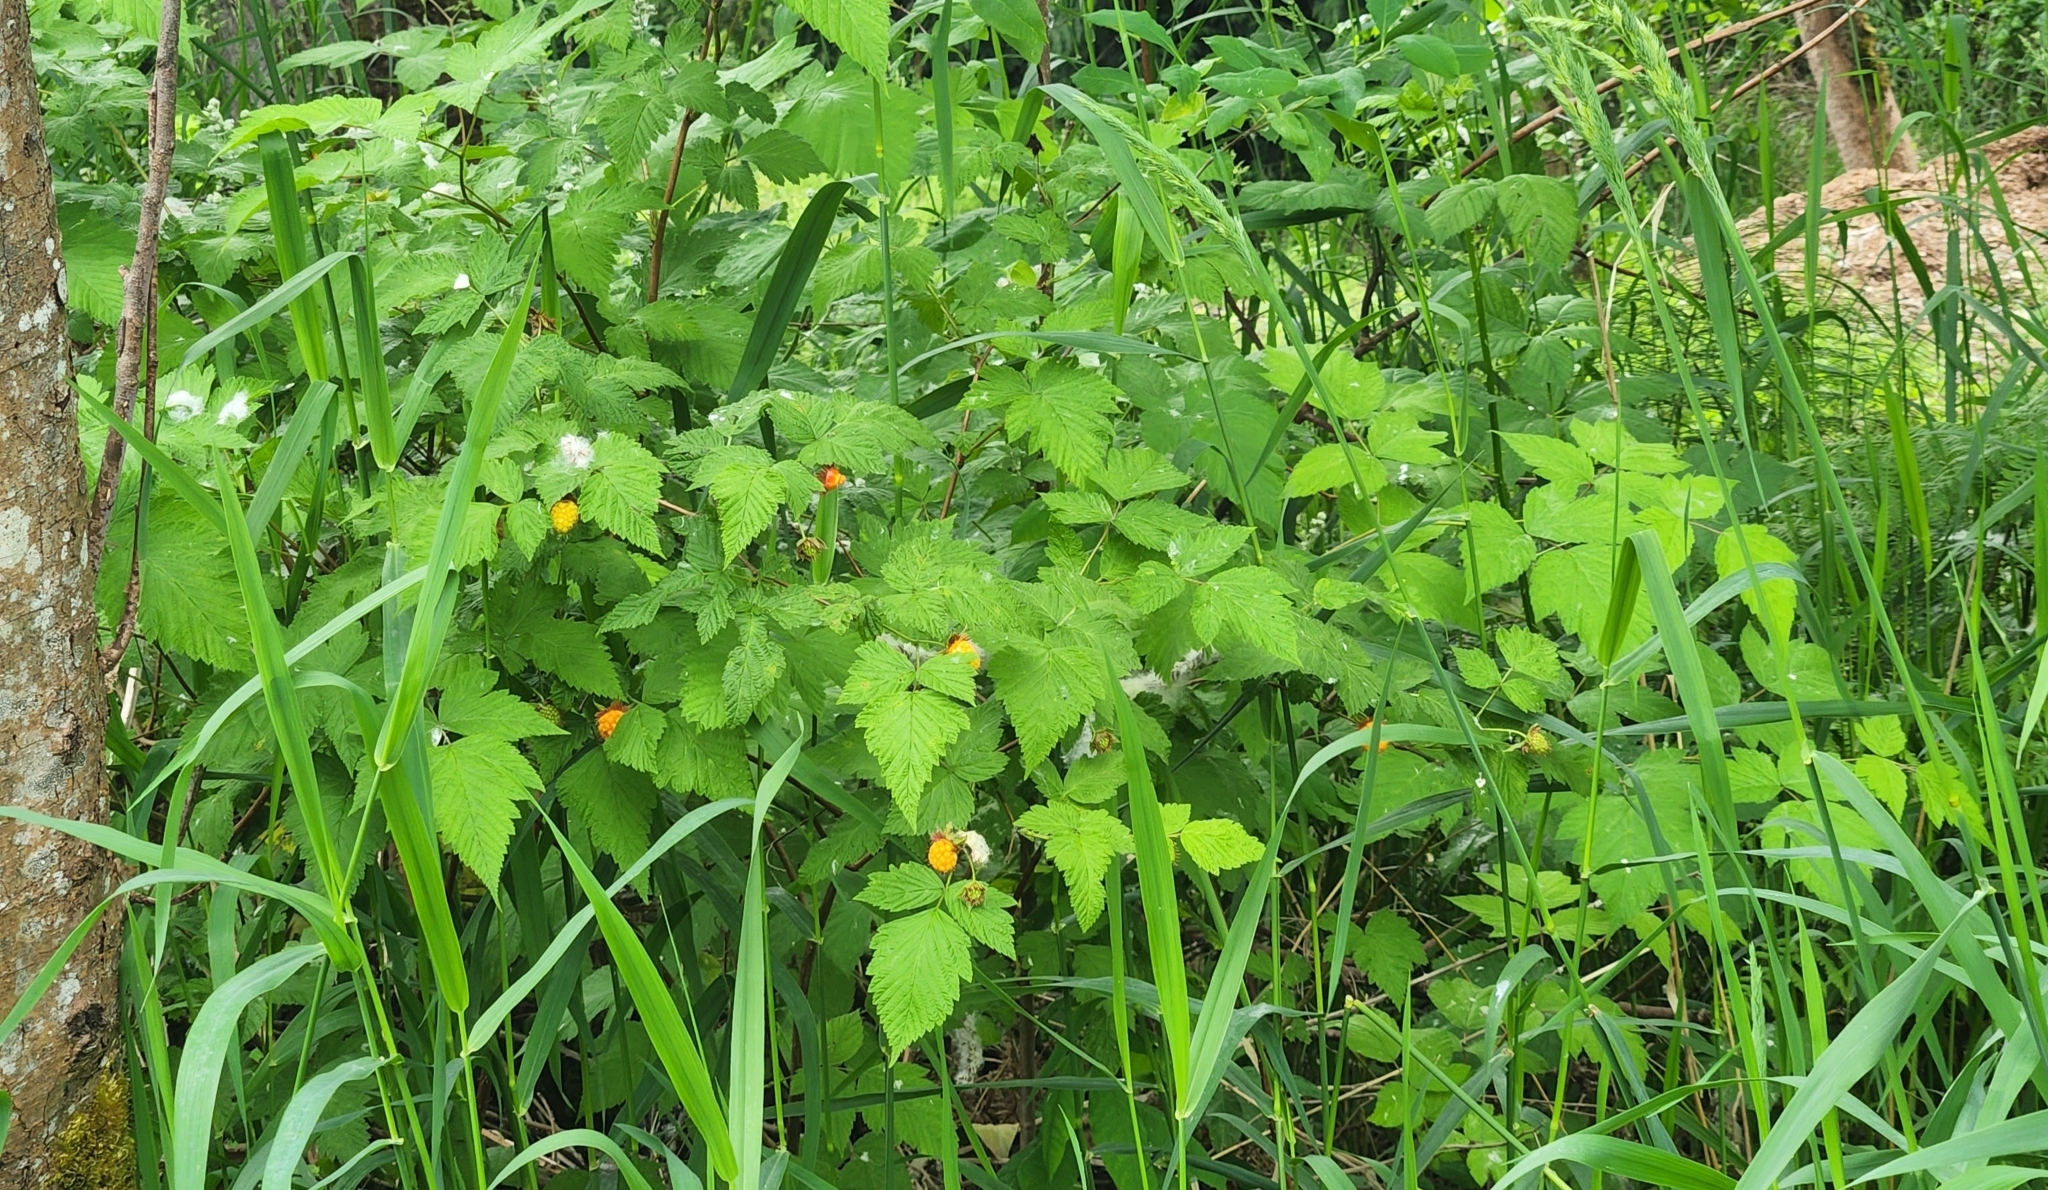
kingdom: Plantae
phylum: Tracheophyta
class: Magnoliopsida
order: Rosales
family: Rosaceae
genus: Rubus
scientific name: Rubus spectabilis
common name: Salmonberry
